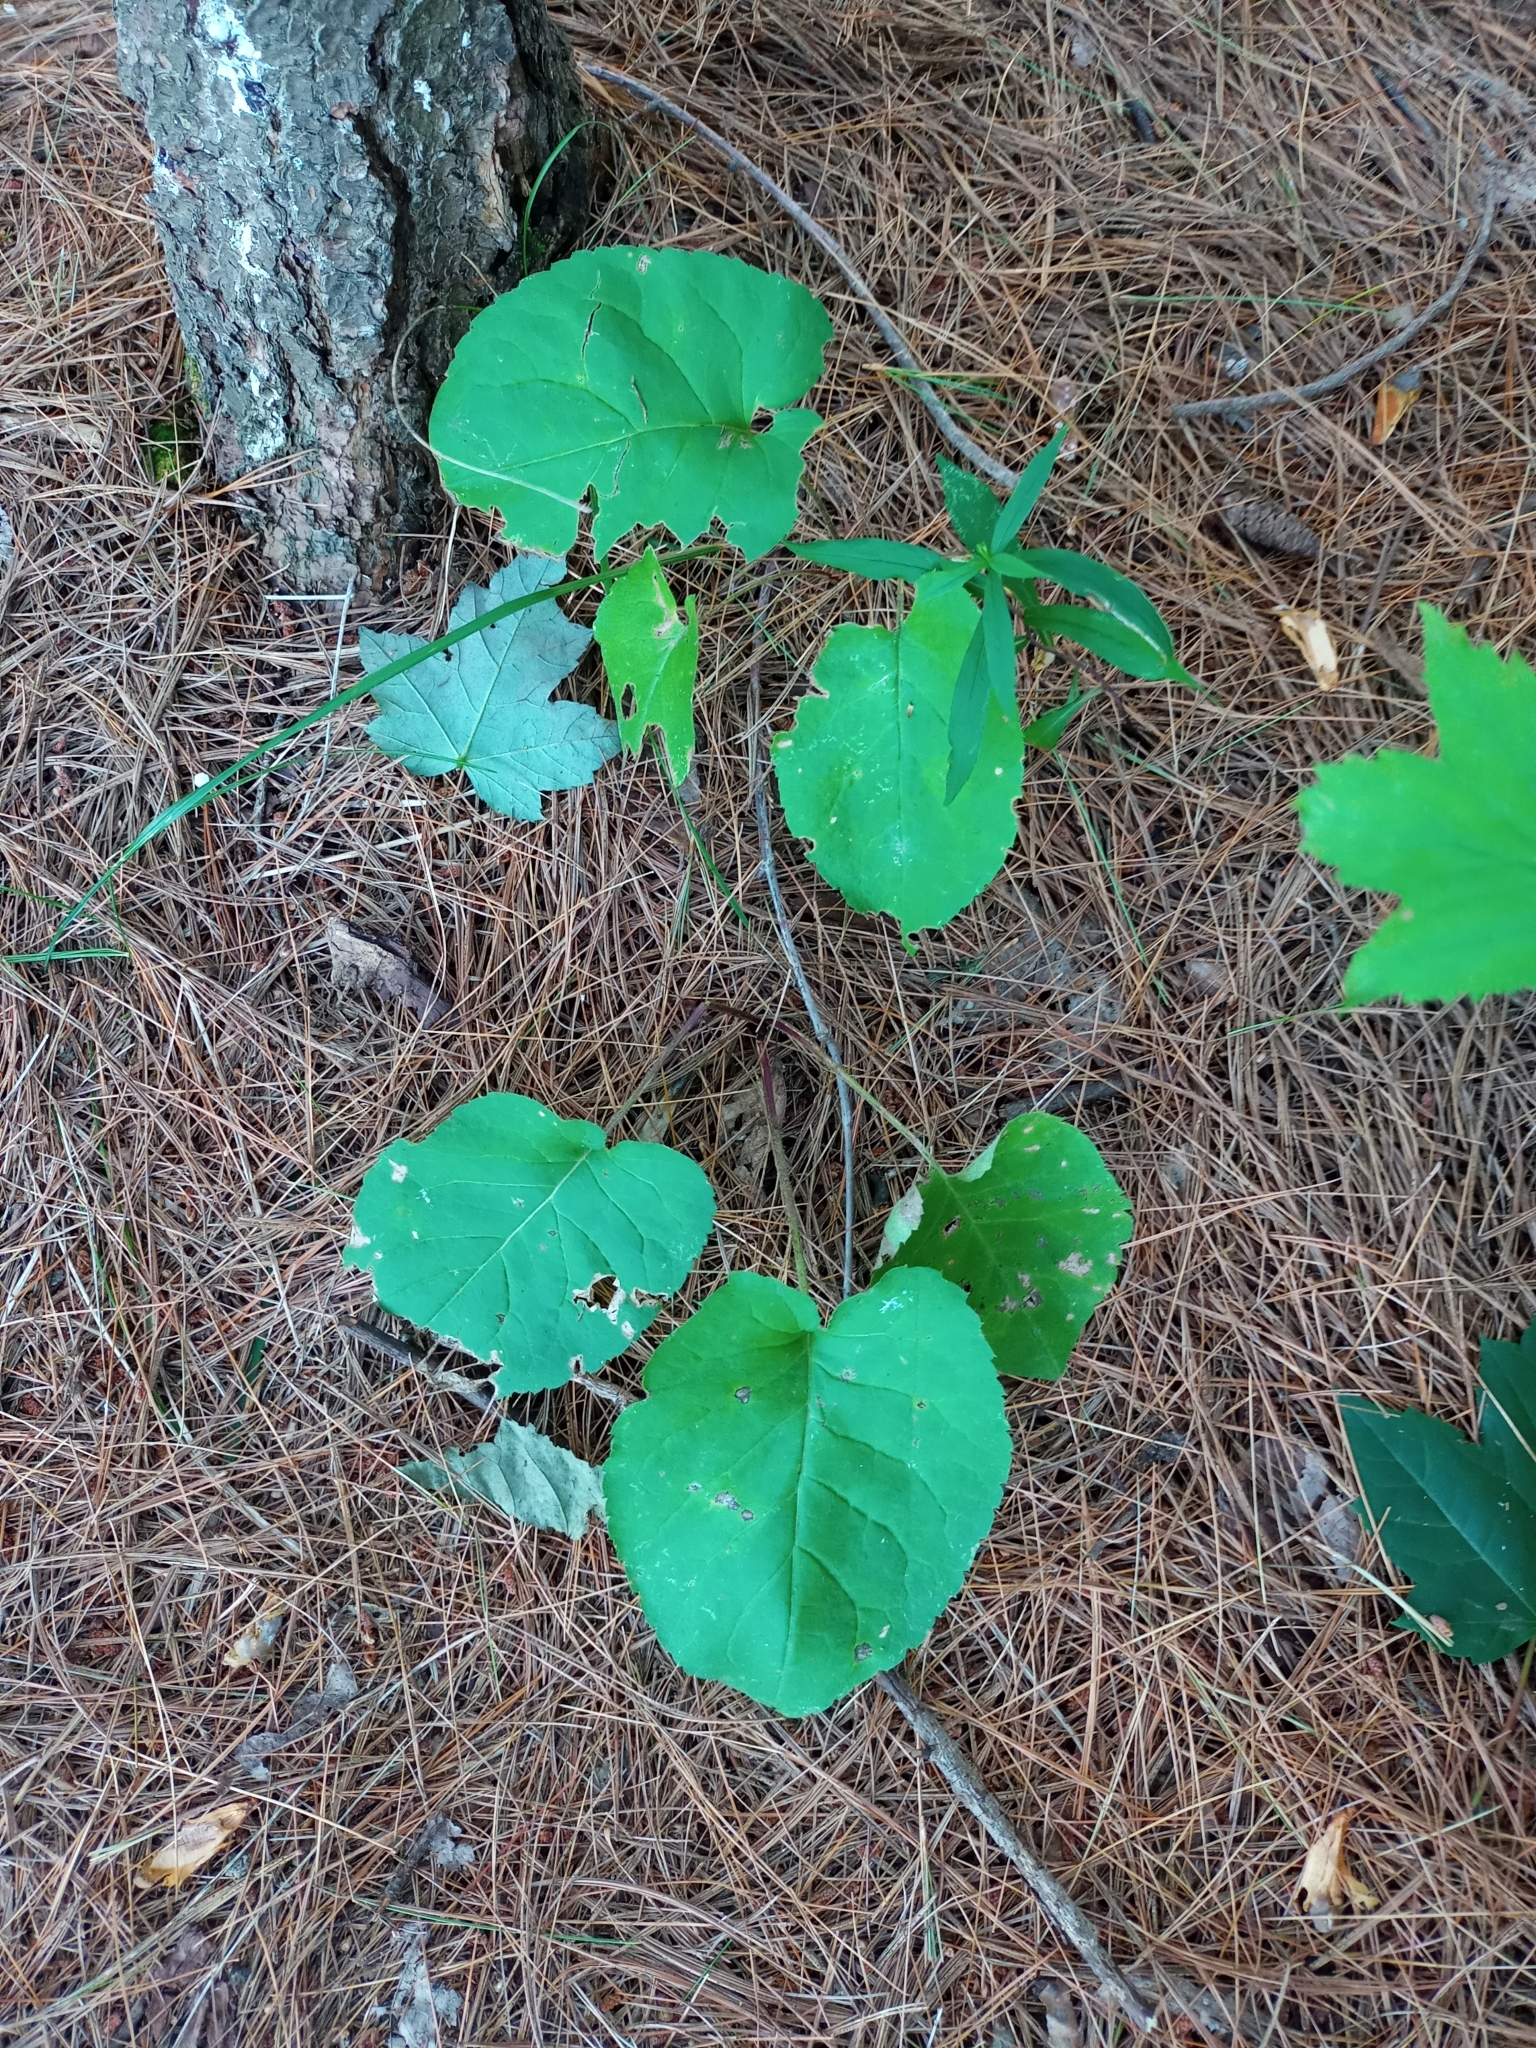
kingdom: Plantae
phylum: Tracheophyta
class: Magnoliopsida
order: Asterales
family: Asteraceae
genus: Eurybia
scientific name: Eurybia macrophylla
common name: Big-leaved aster
